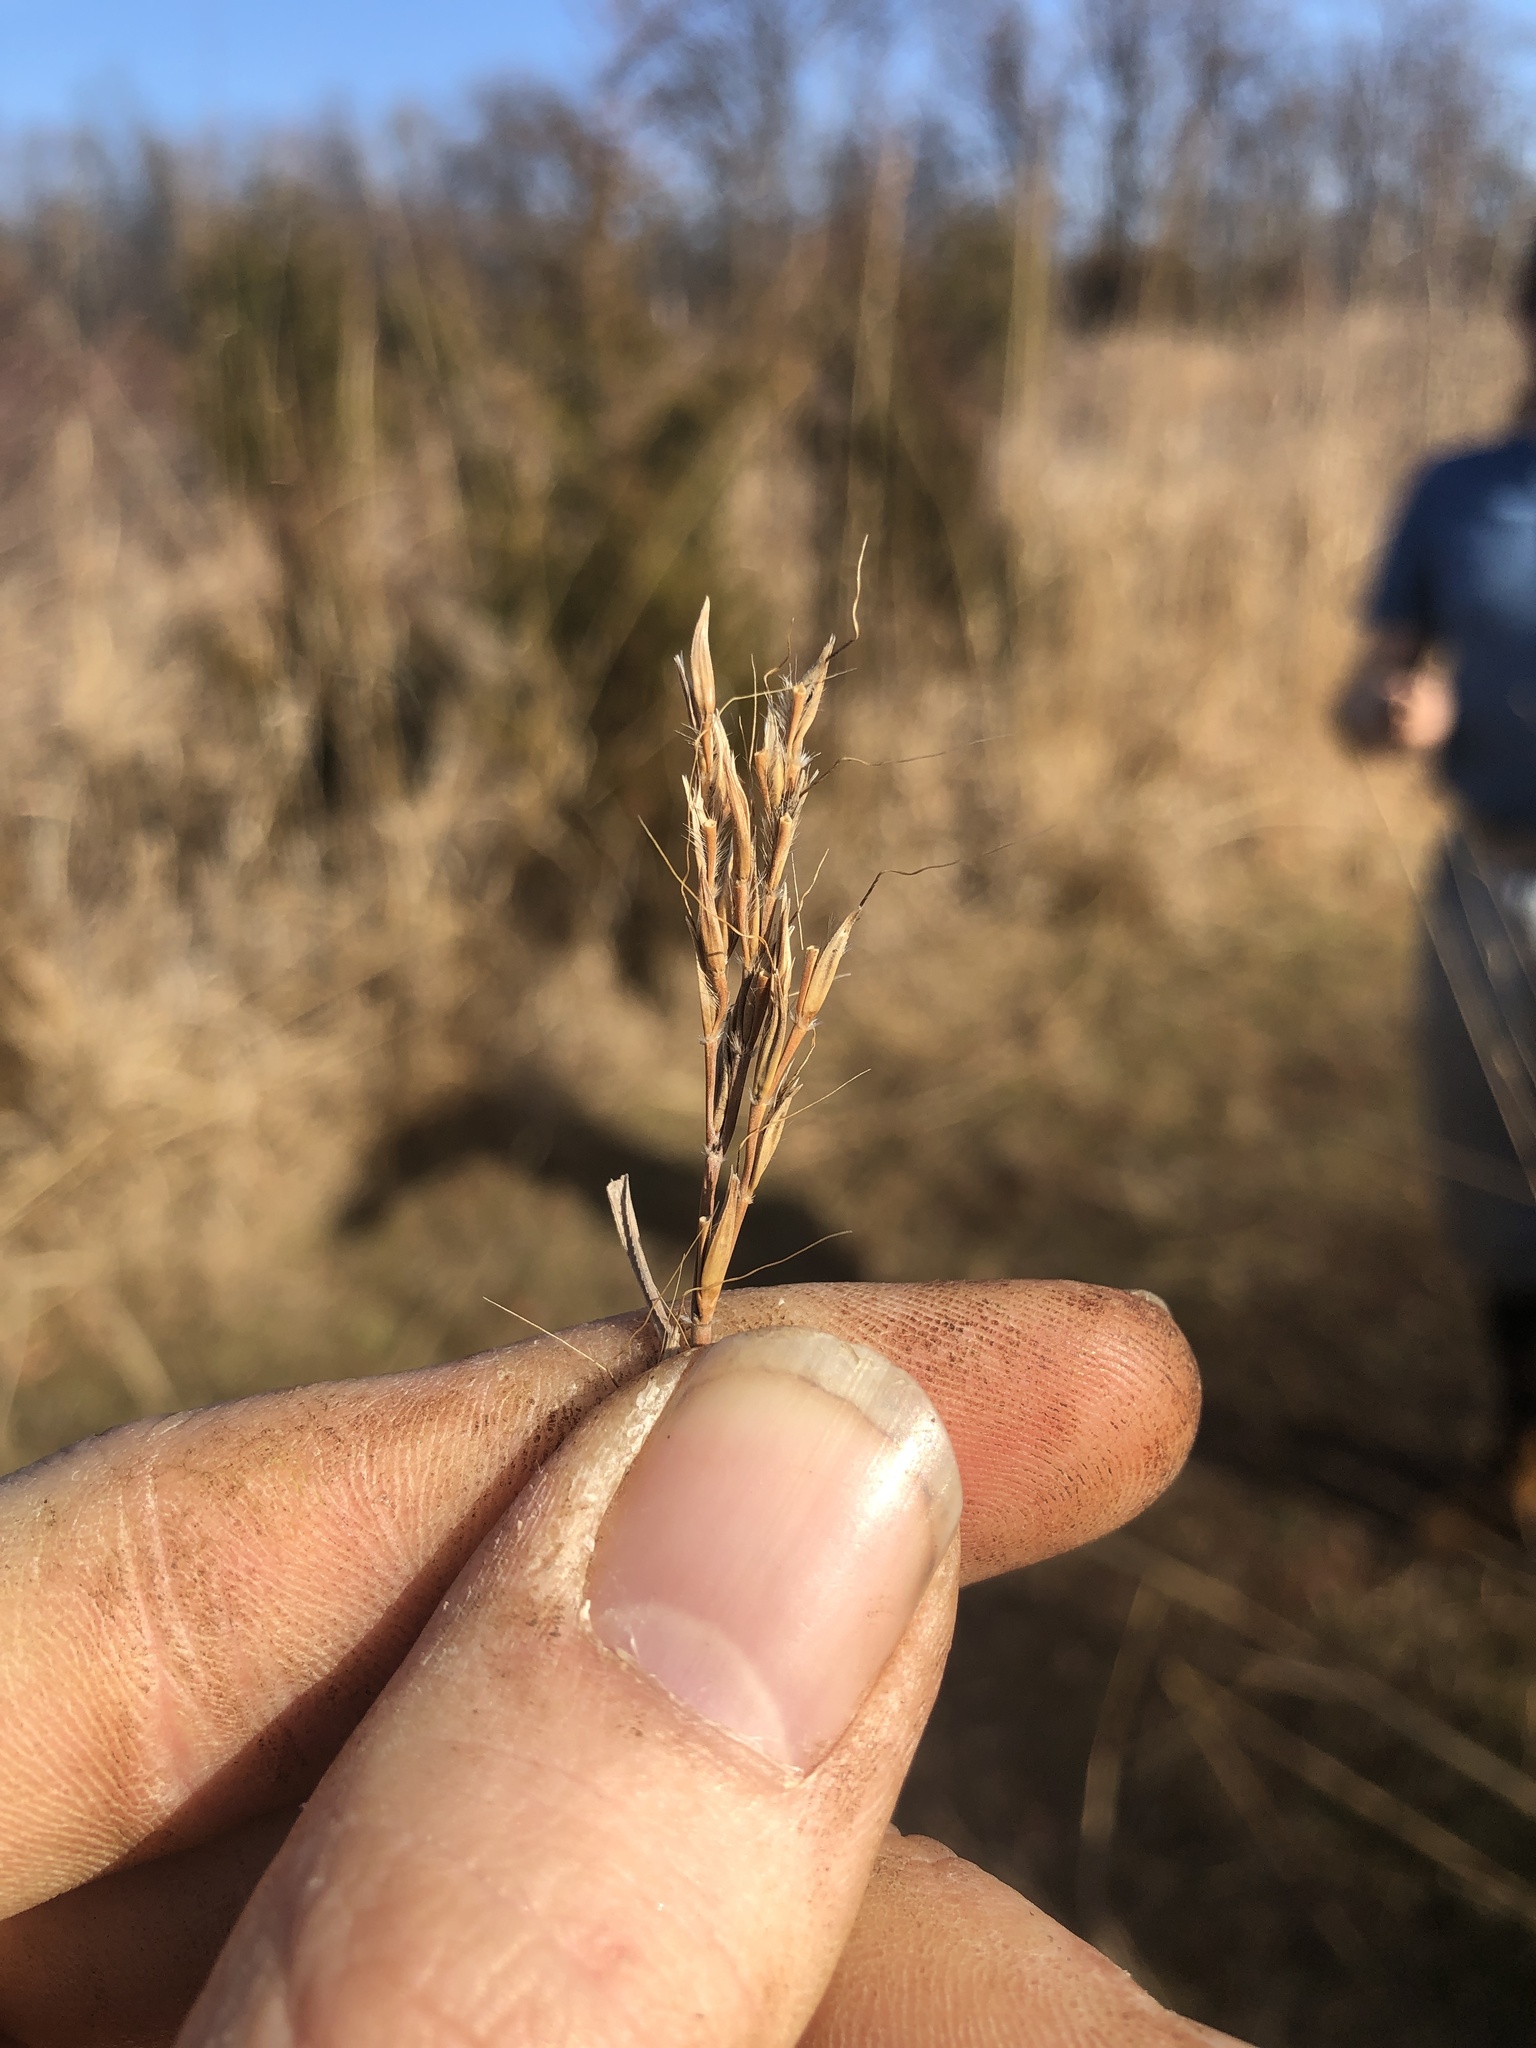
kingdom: Plantae
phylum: Tracheophyta
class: Liliopsida
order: Poales
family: Poaceae
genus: Andropogon
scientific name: Andropogon gerardi
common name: Big bluestem
